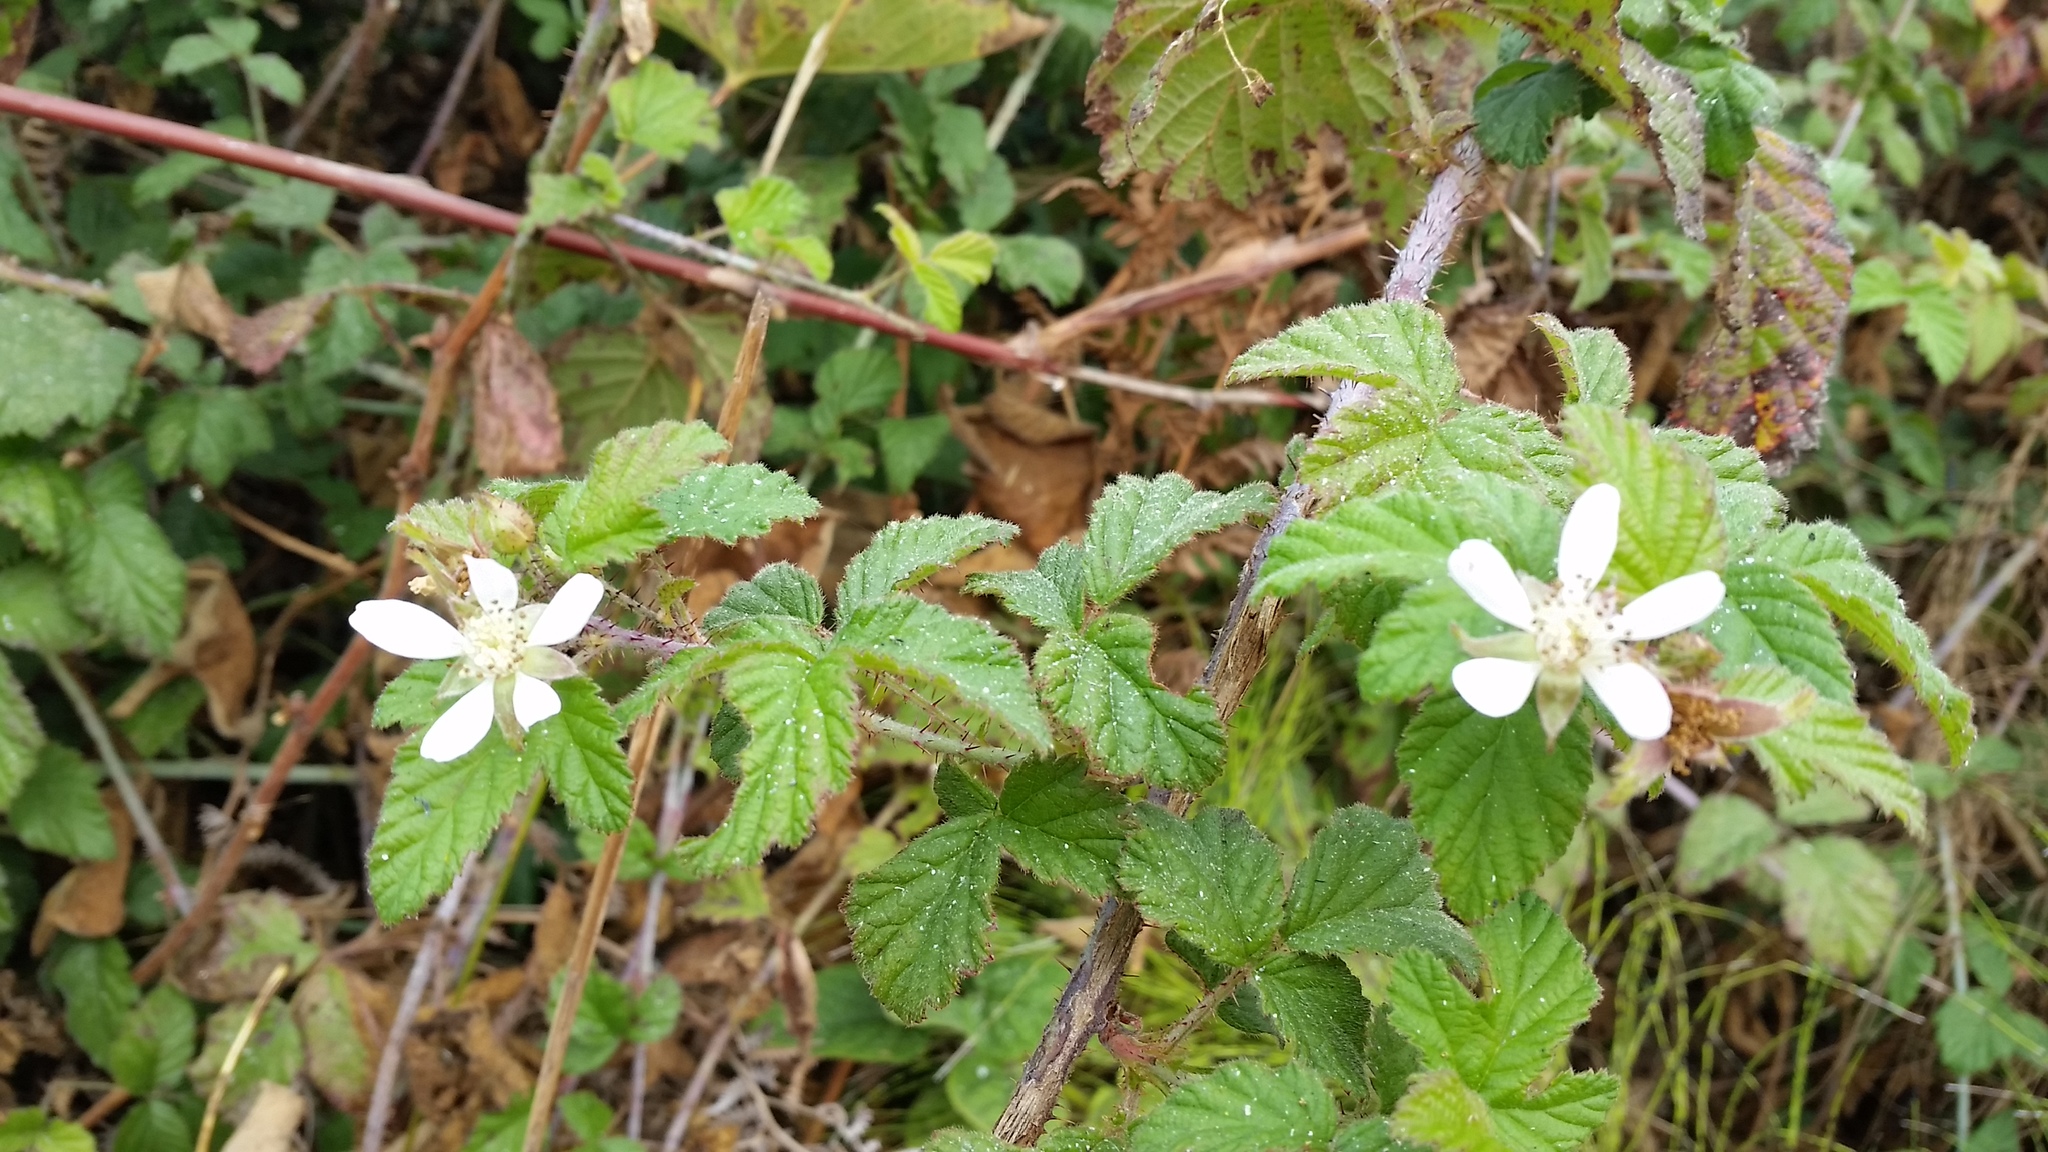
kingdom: Plantae
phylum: Tracheophyta
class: Magnoliopsida
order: Rosales
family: Rosaceae
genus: Rubus
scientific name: Rubus ursinus
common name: Pacific blackberry
